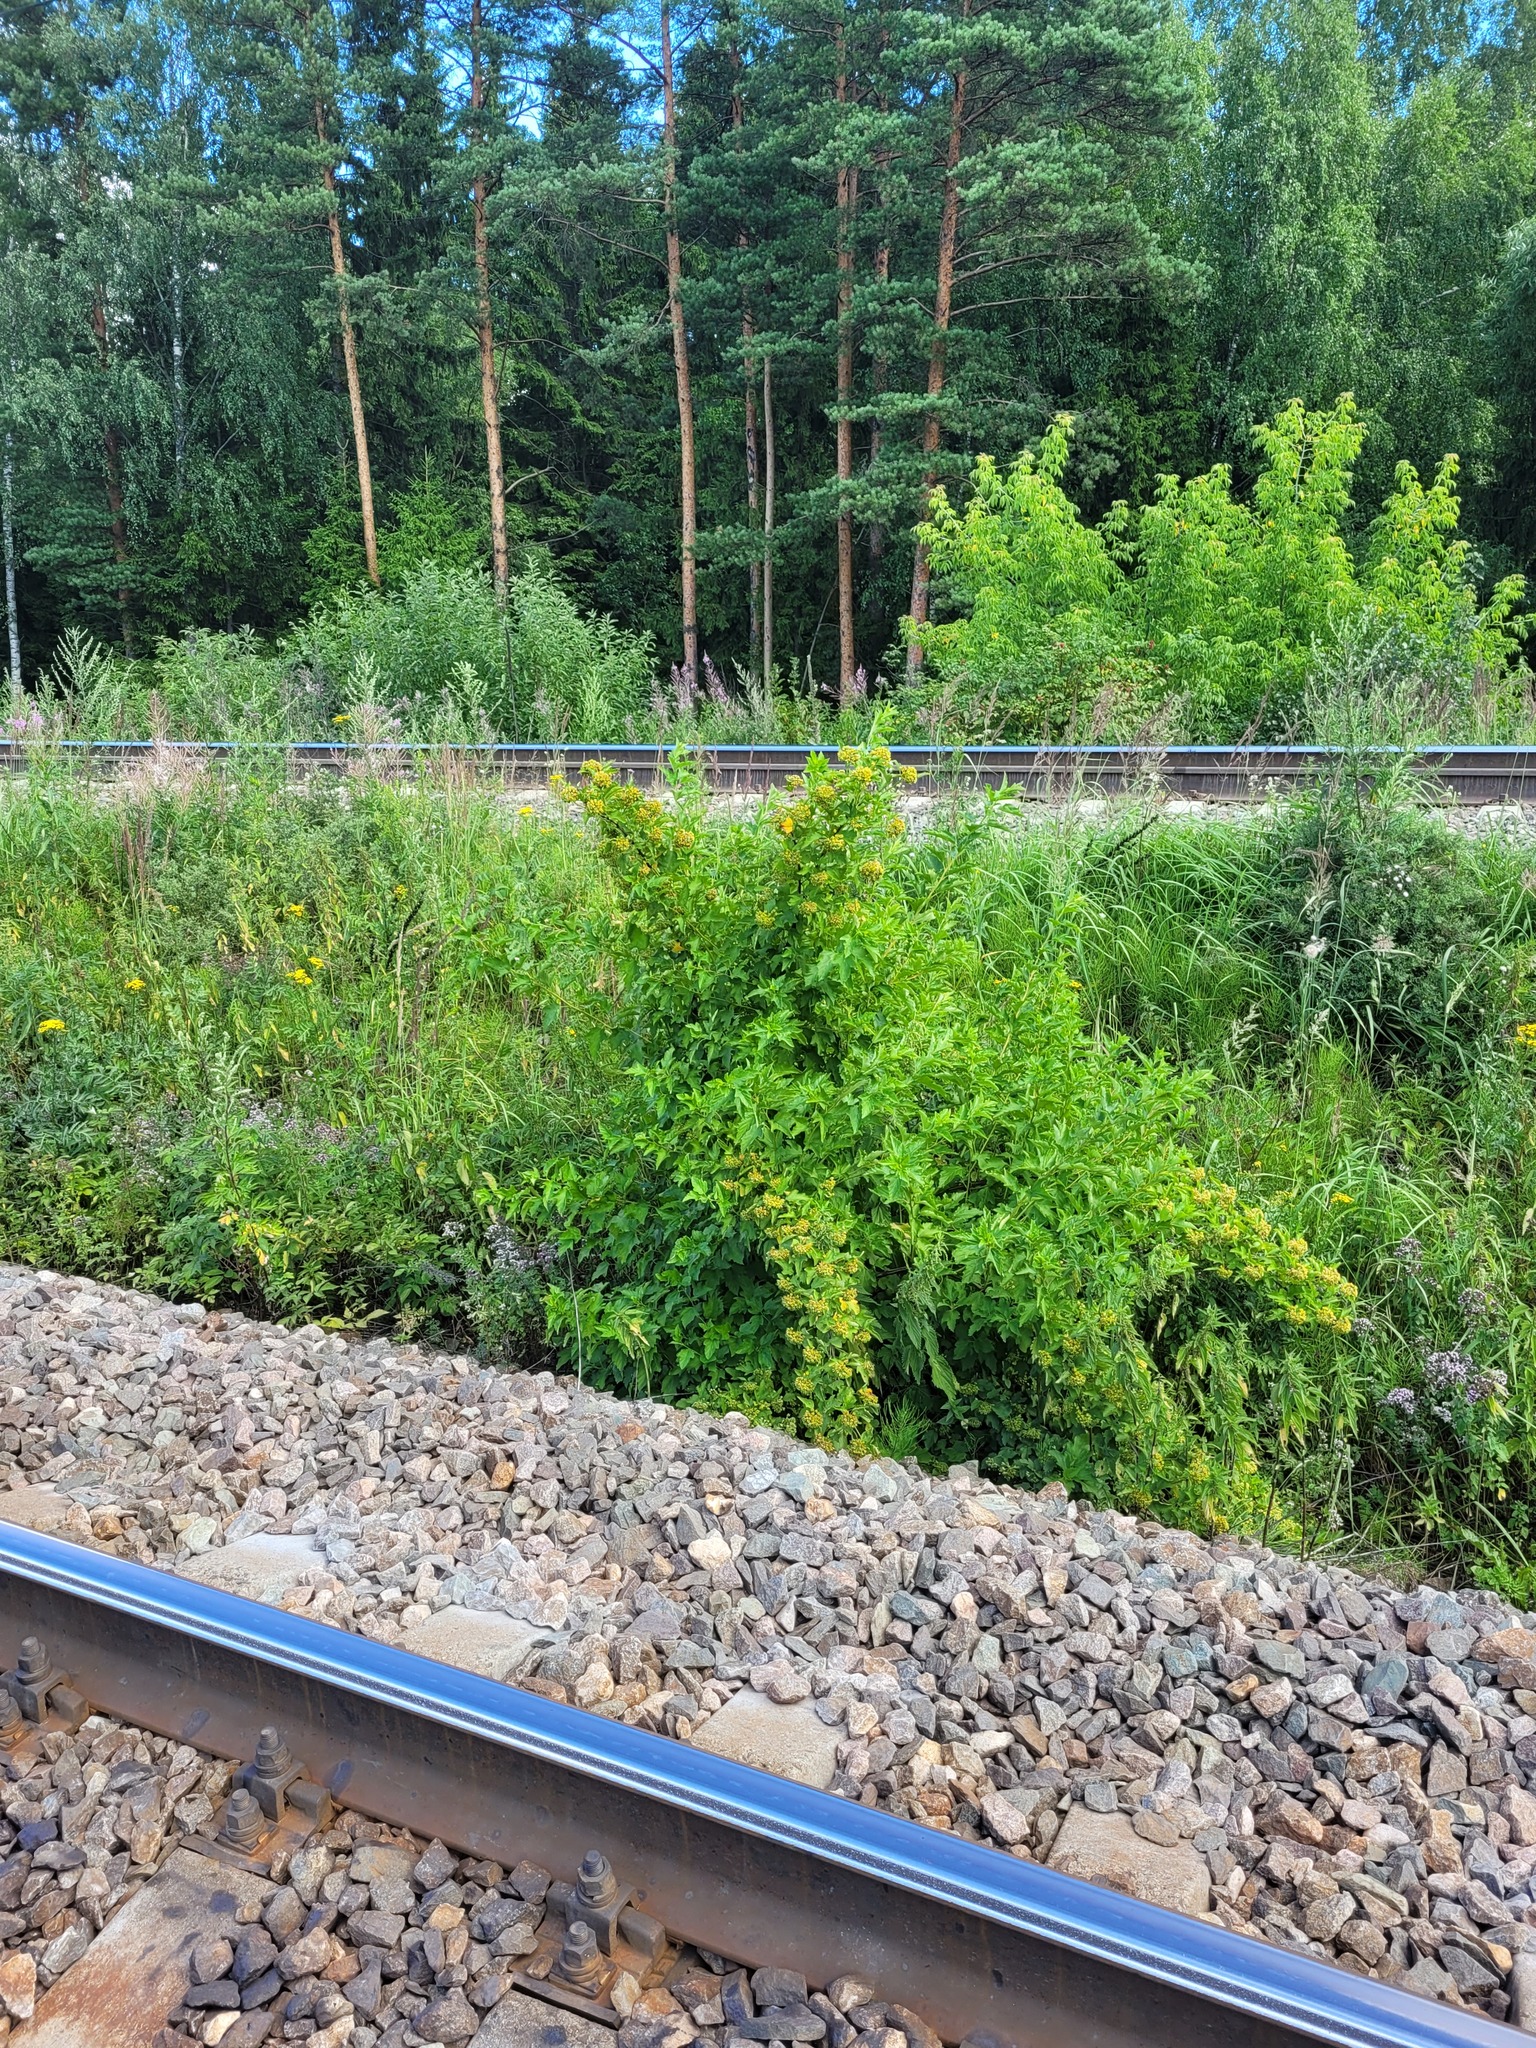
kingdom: Plantae
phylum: Tracheophyta
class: Magnoliopsida
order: Rosales
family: Rosaceae
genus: Physocarpus
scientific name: Physocarpus opulifolius
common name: Ninebark
